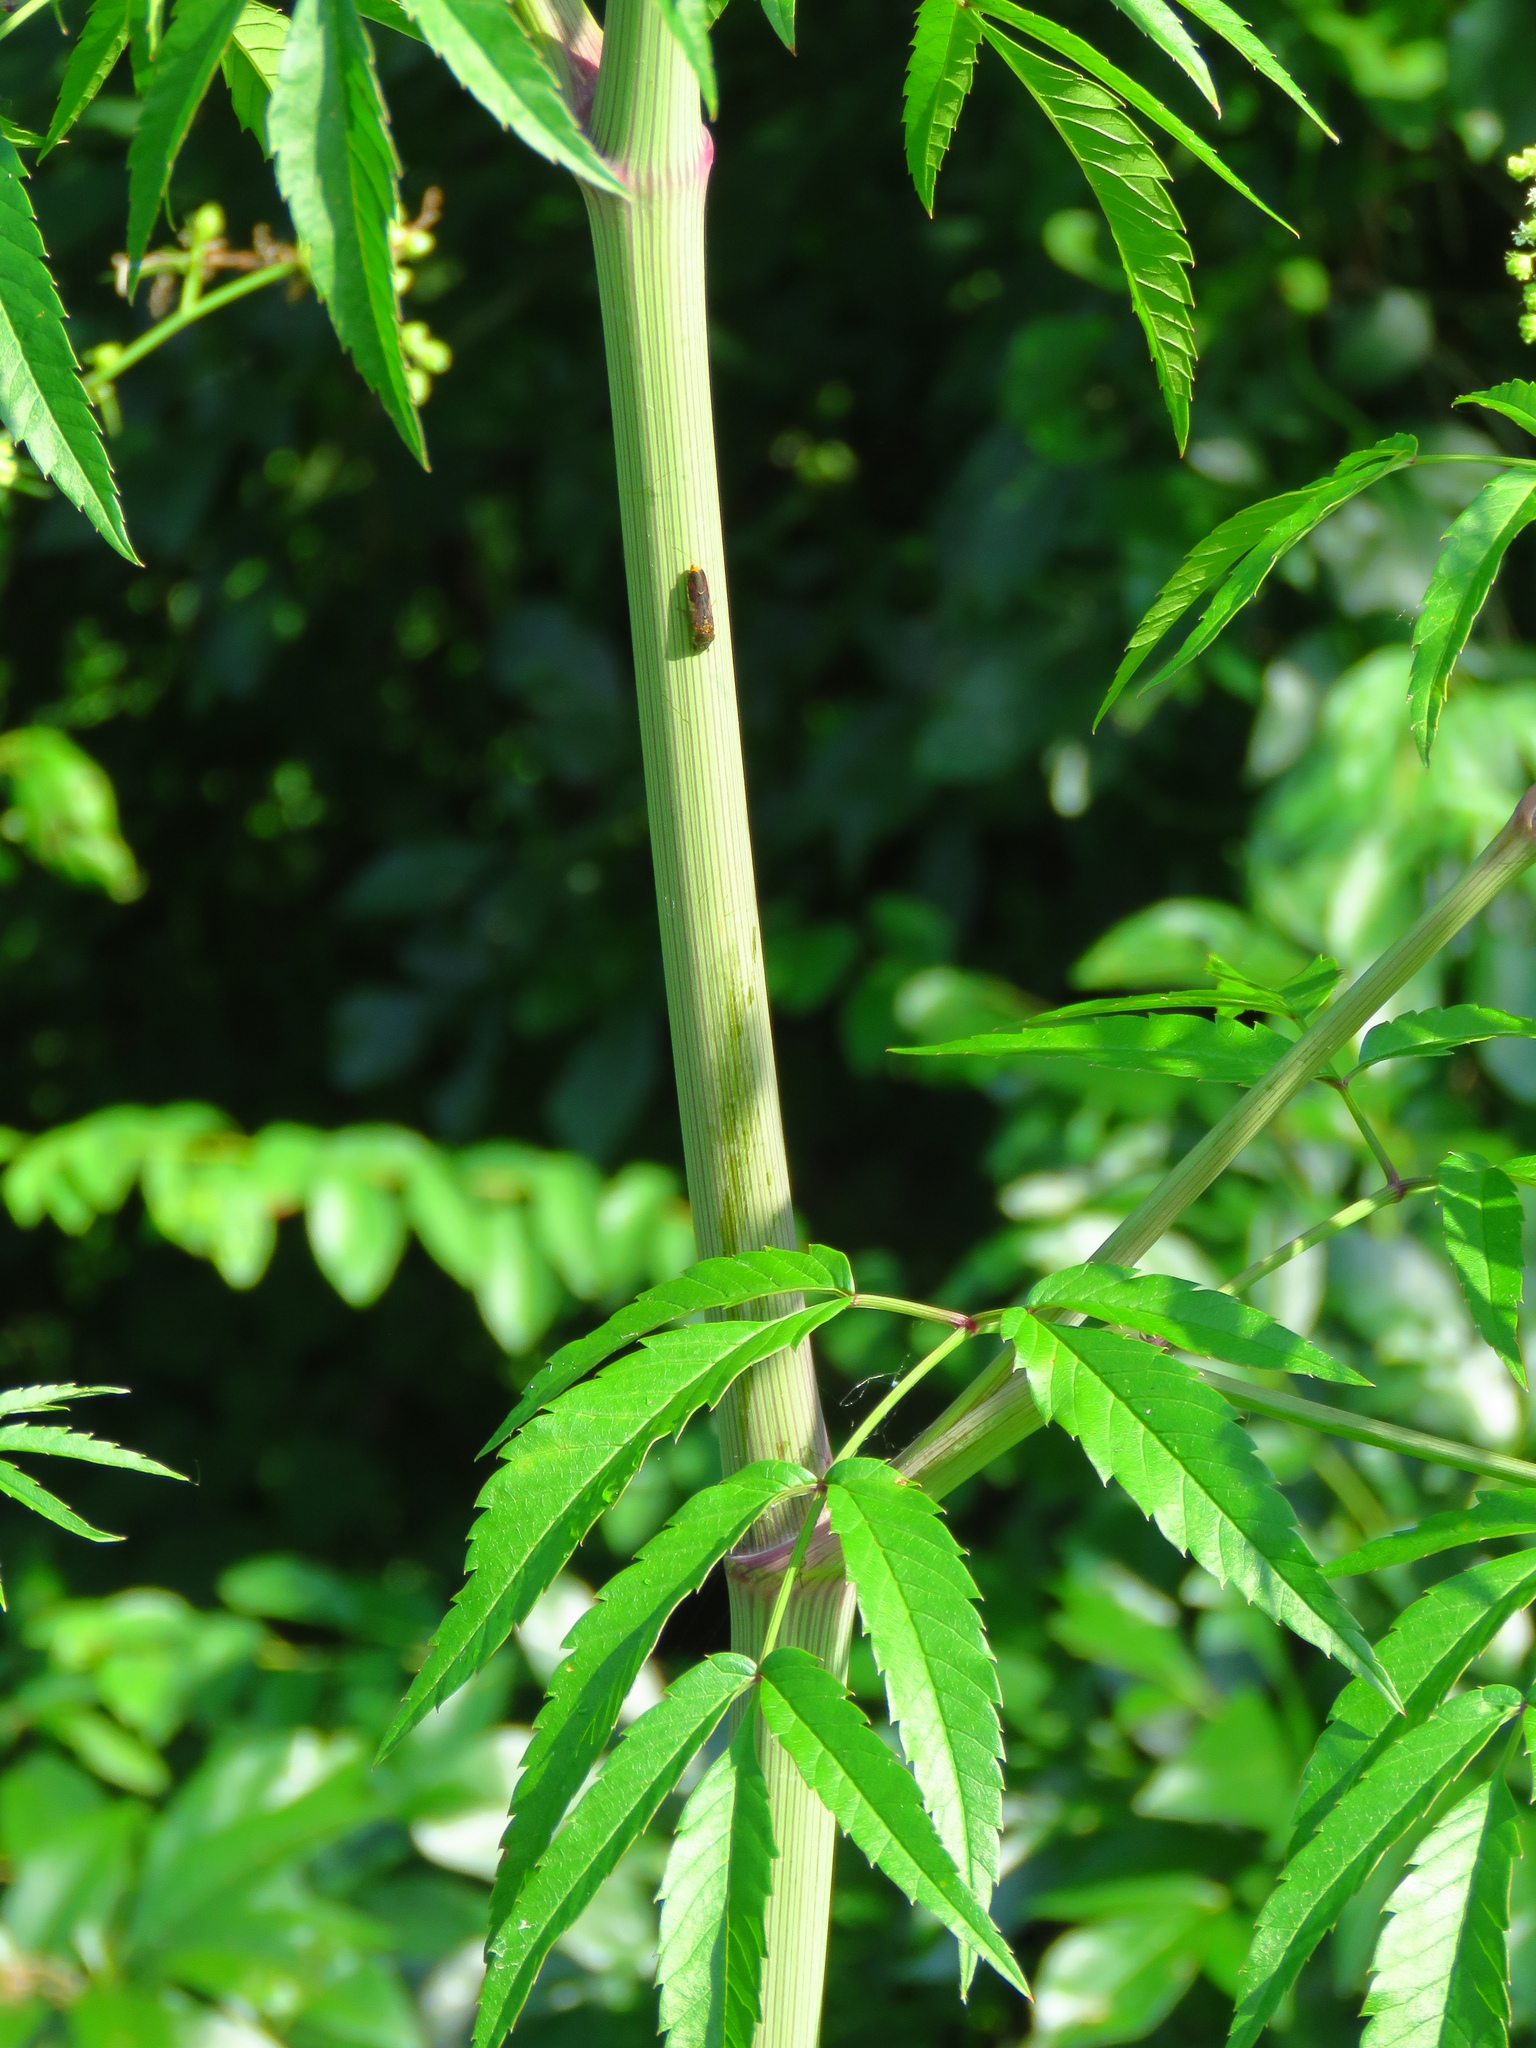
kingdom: Plantae
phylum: Tracheophyta
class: Magnoliopsida
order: Apiales
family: Apiaceae
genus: Cicuta
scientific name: Cicuta maculata
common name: Spotted cowbane
